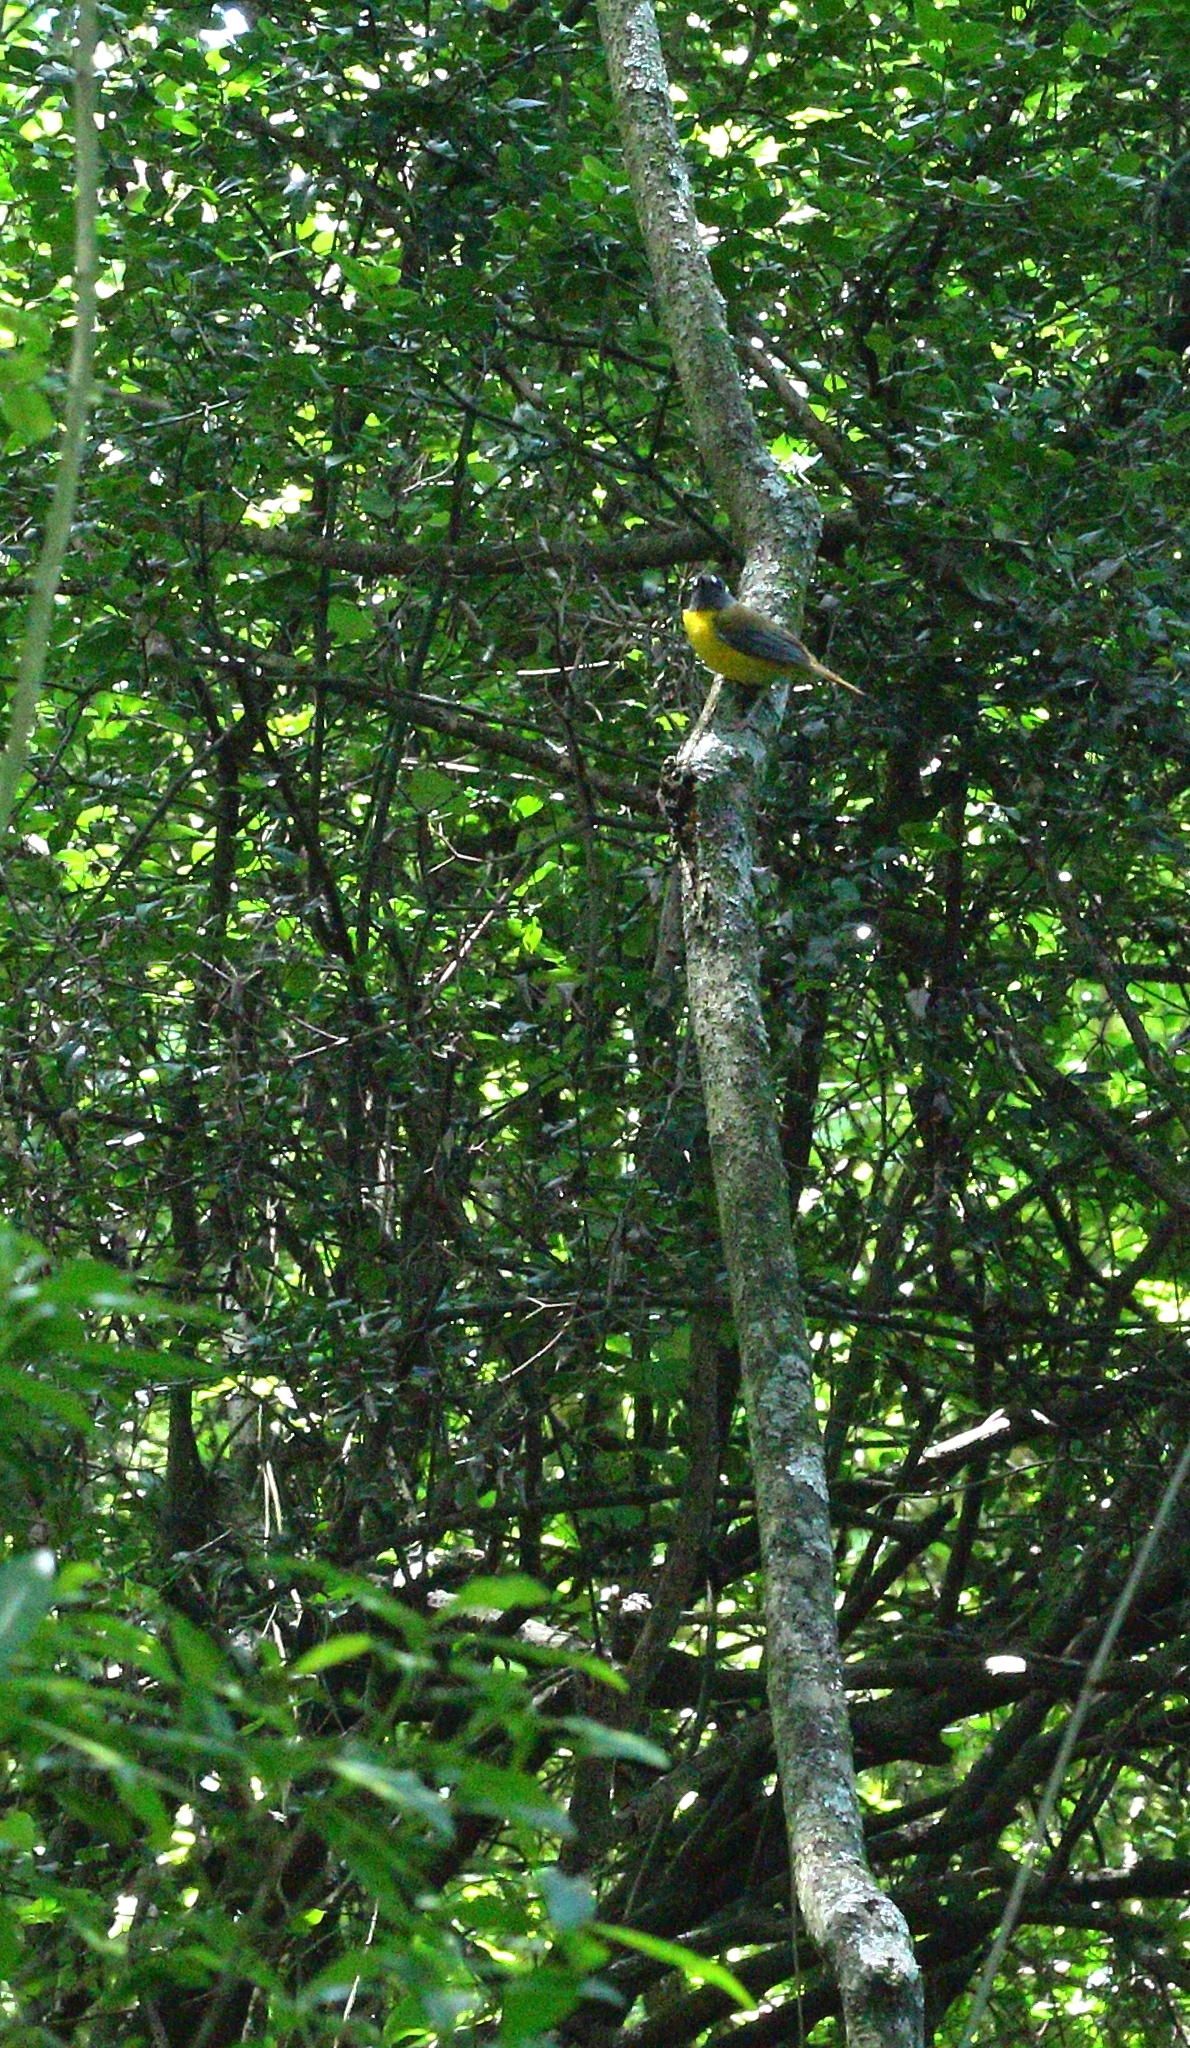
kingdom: Animalia
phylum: Chordata
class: Aves
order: Passeriformes
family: Muscicapidae
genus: Pogonocichla
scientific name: Pogonocichla stellata
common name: White-starred robin
